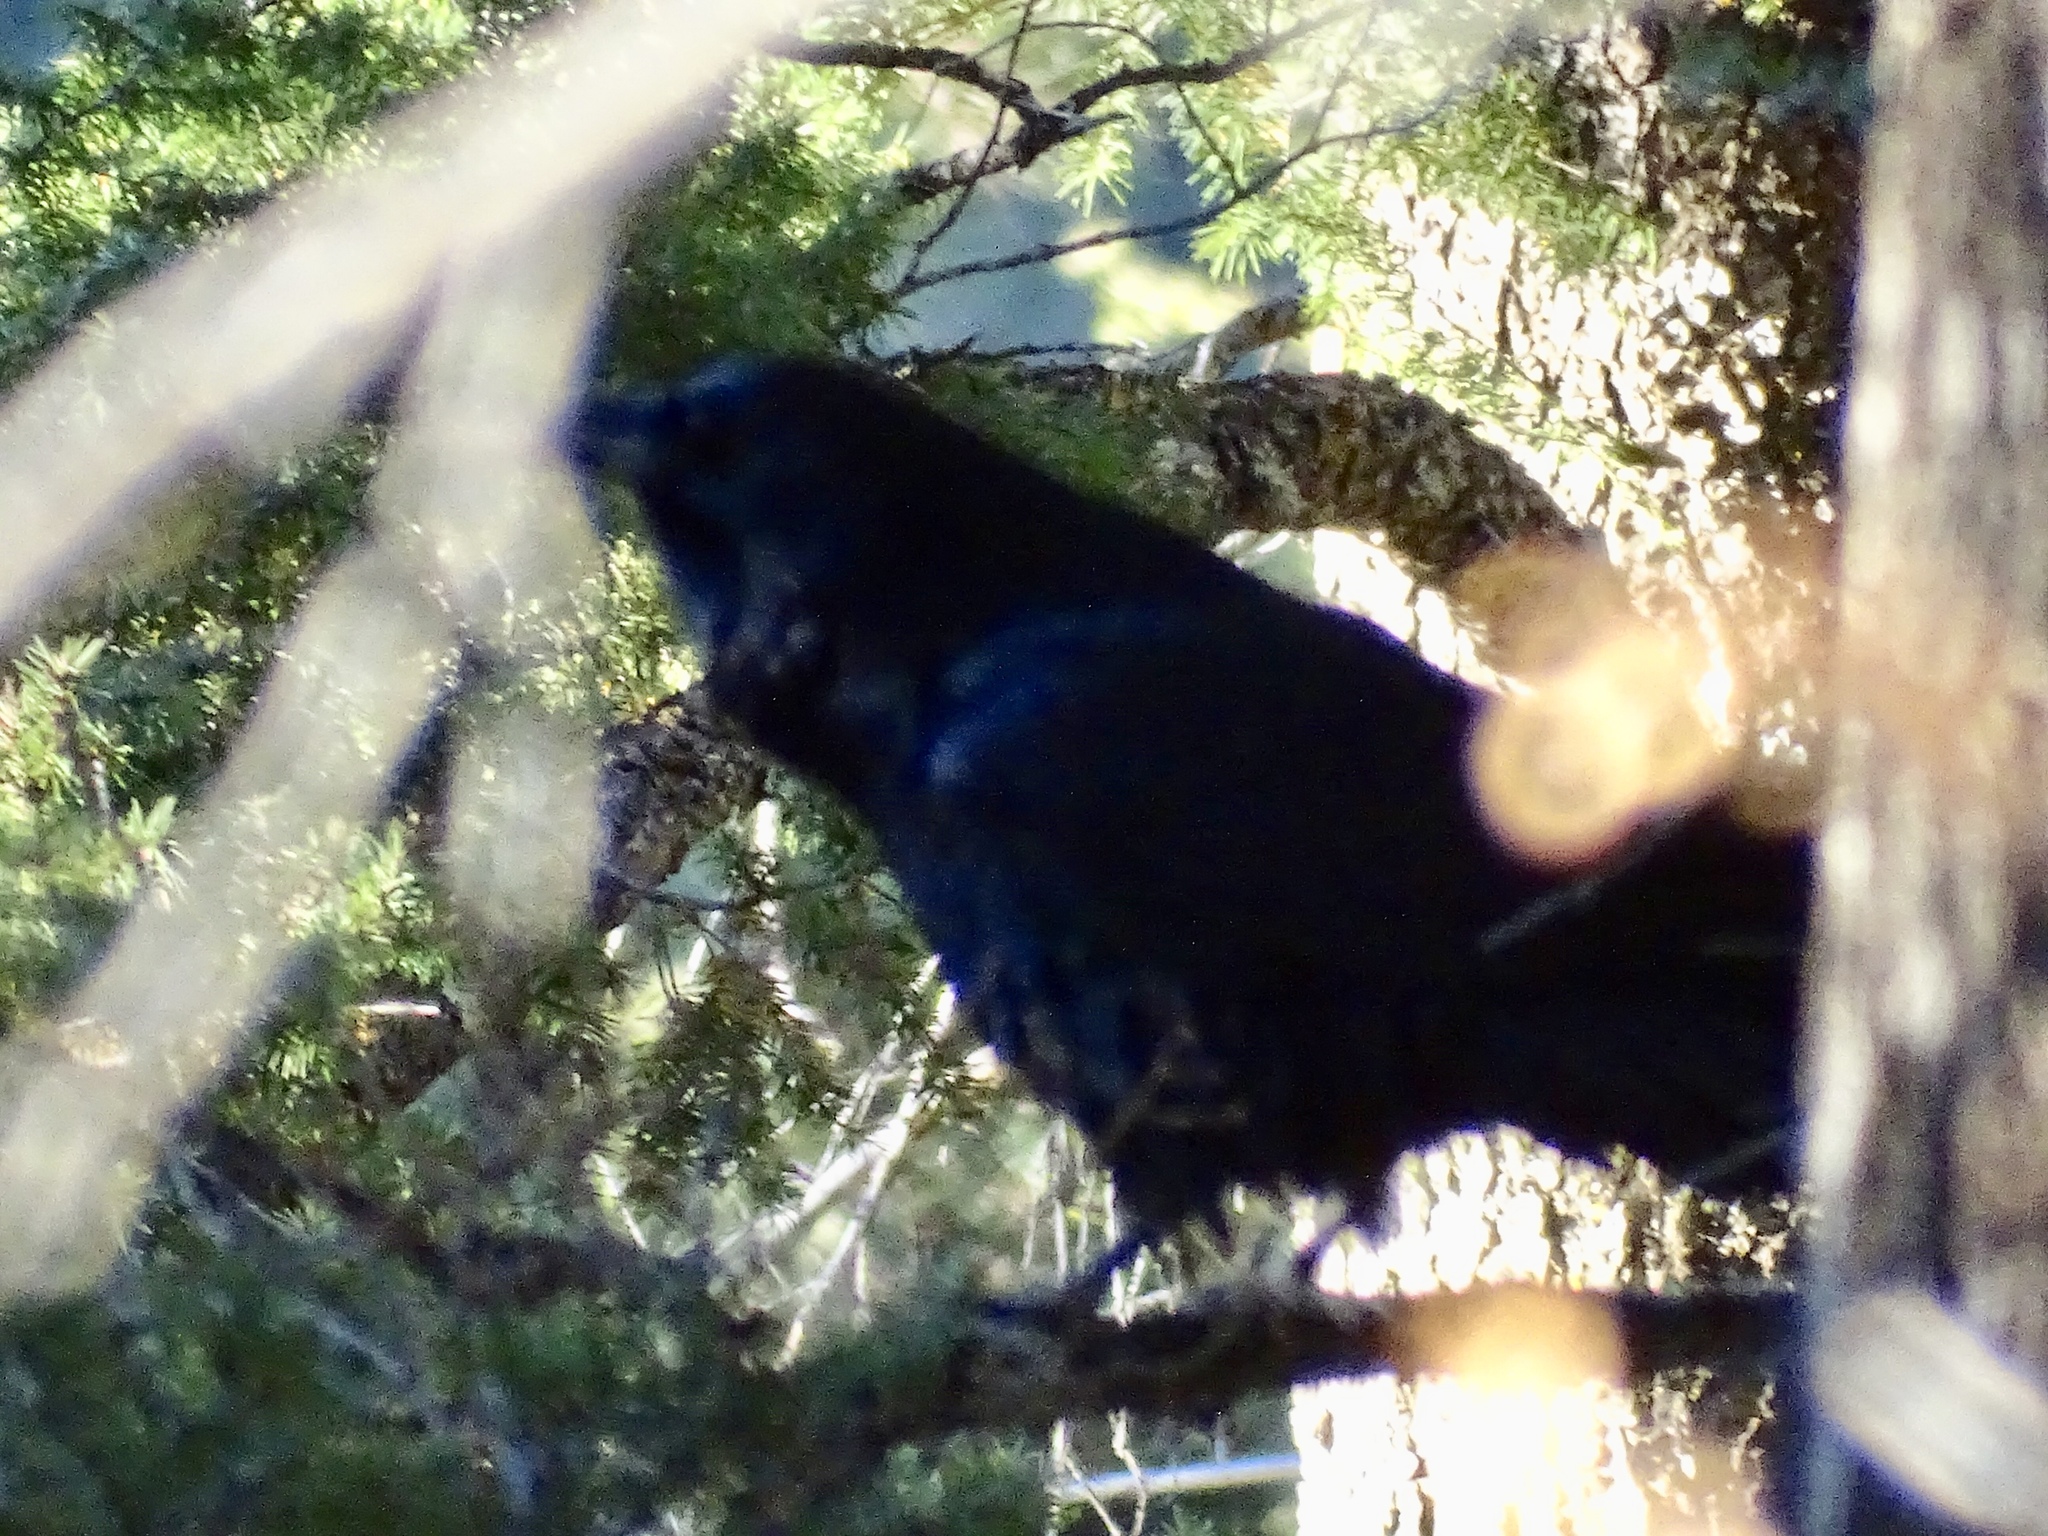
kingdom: Animalia
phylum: Chordata
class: Aves
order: Passeriformes
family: Corvidae
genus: Corvus
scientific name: Corvus corax
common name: Common raven
